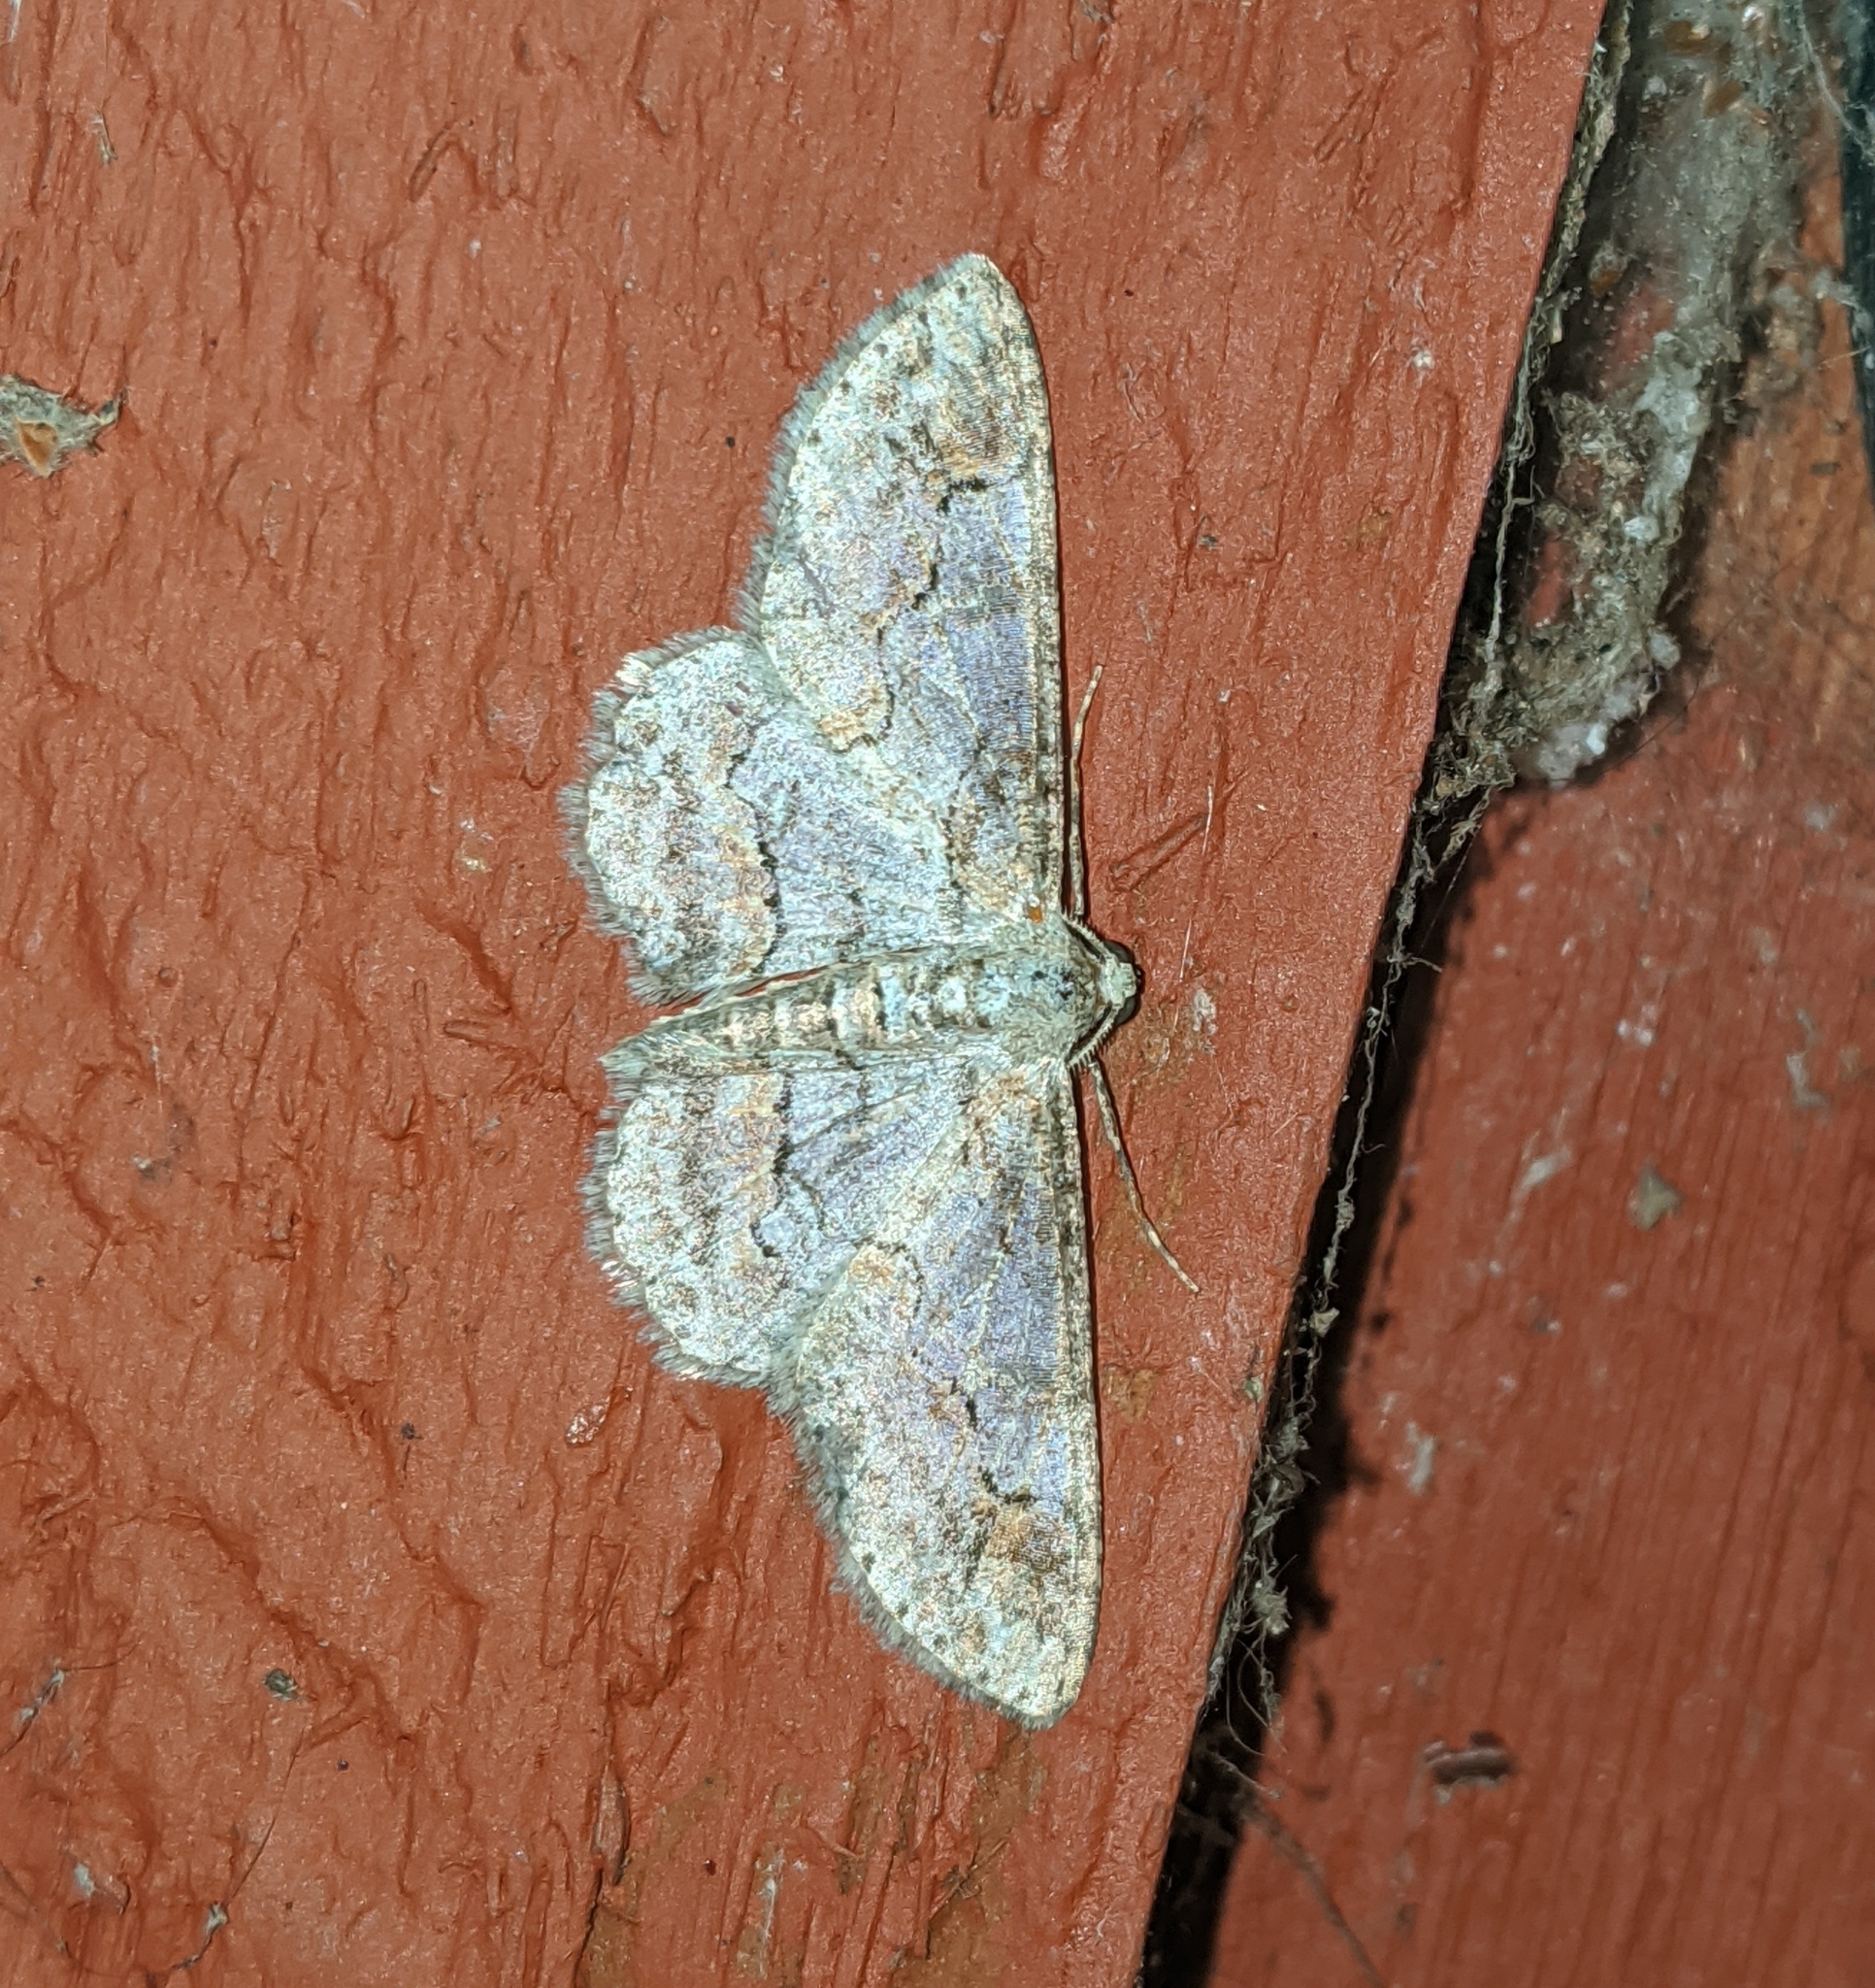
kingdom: Animalia
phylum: Arthropoda
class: Insecta
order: Lepidoptera
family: Geometridae
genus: Iridopsis
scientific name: Iridopsis emasculatum
